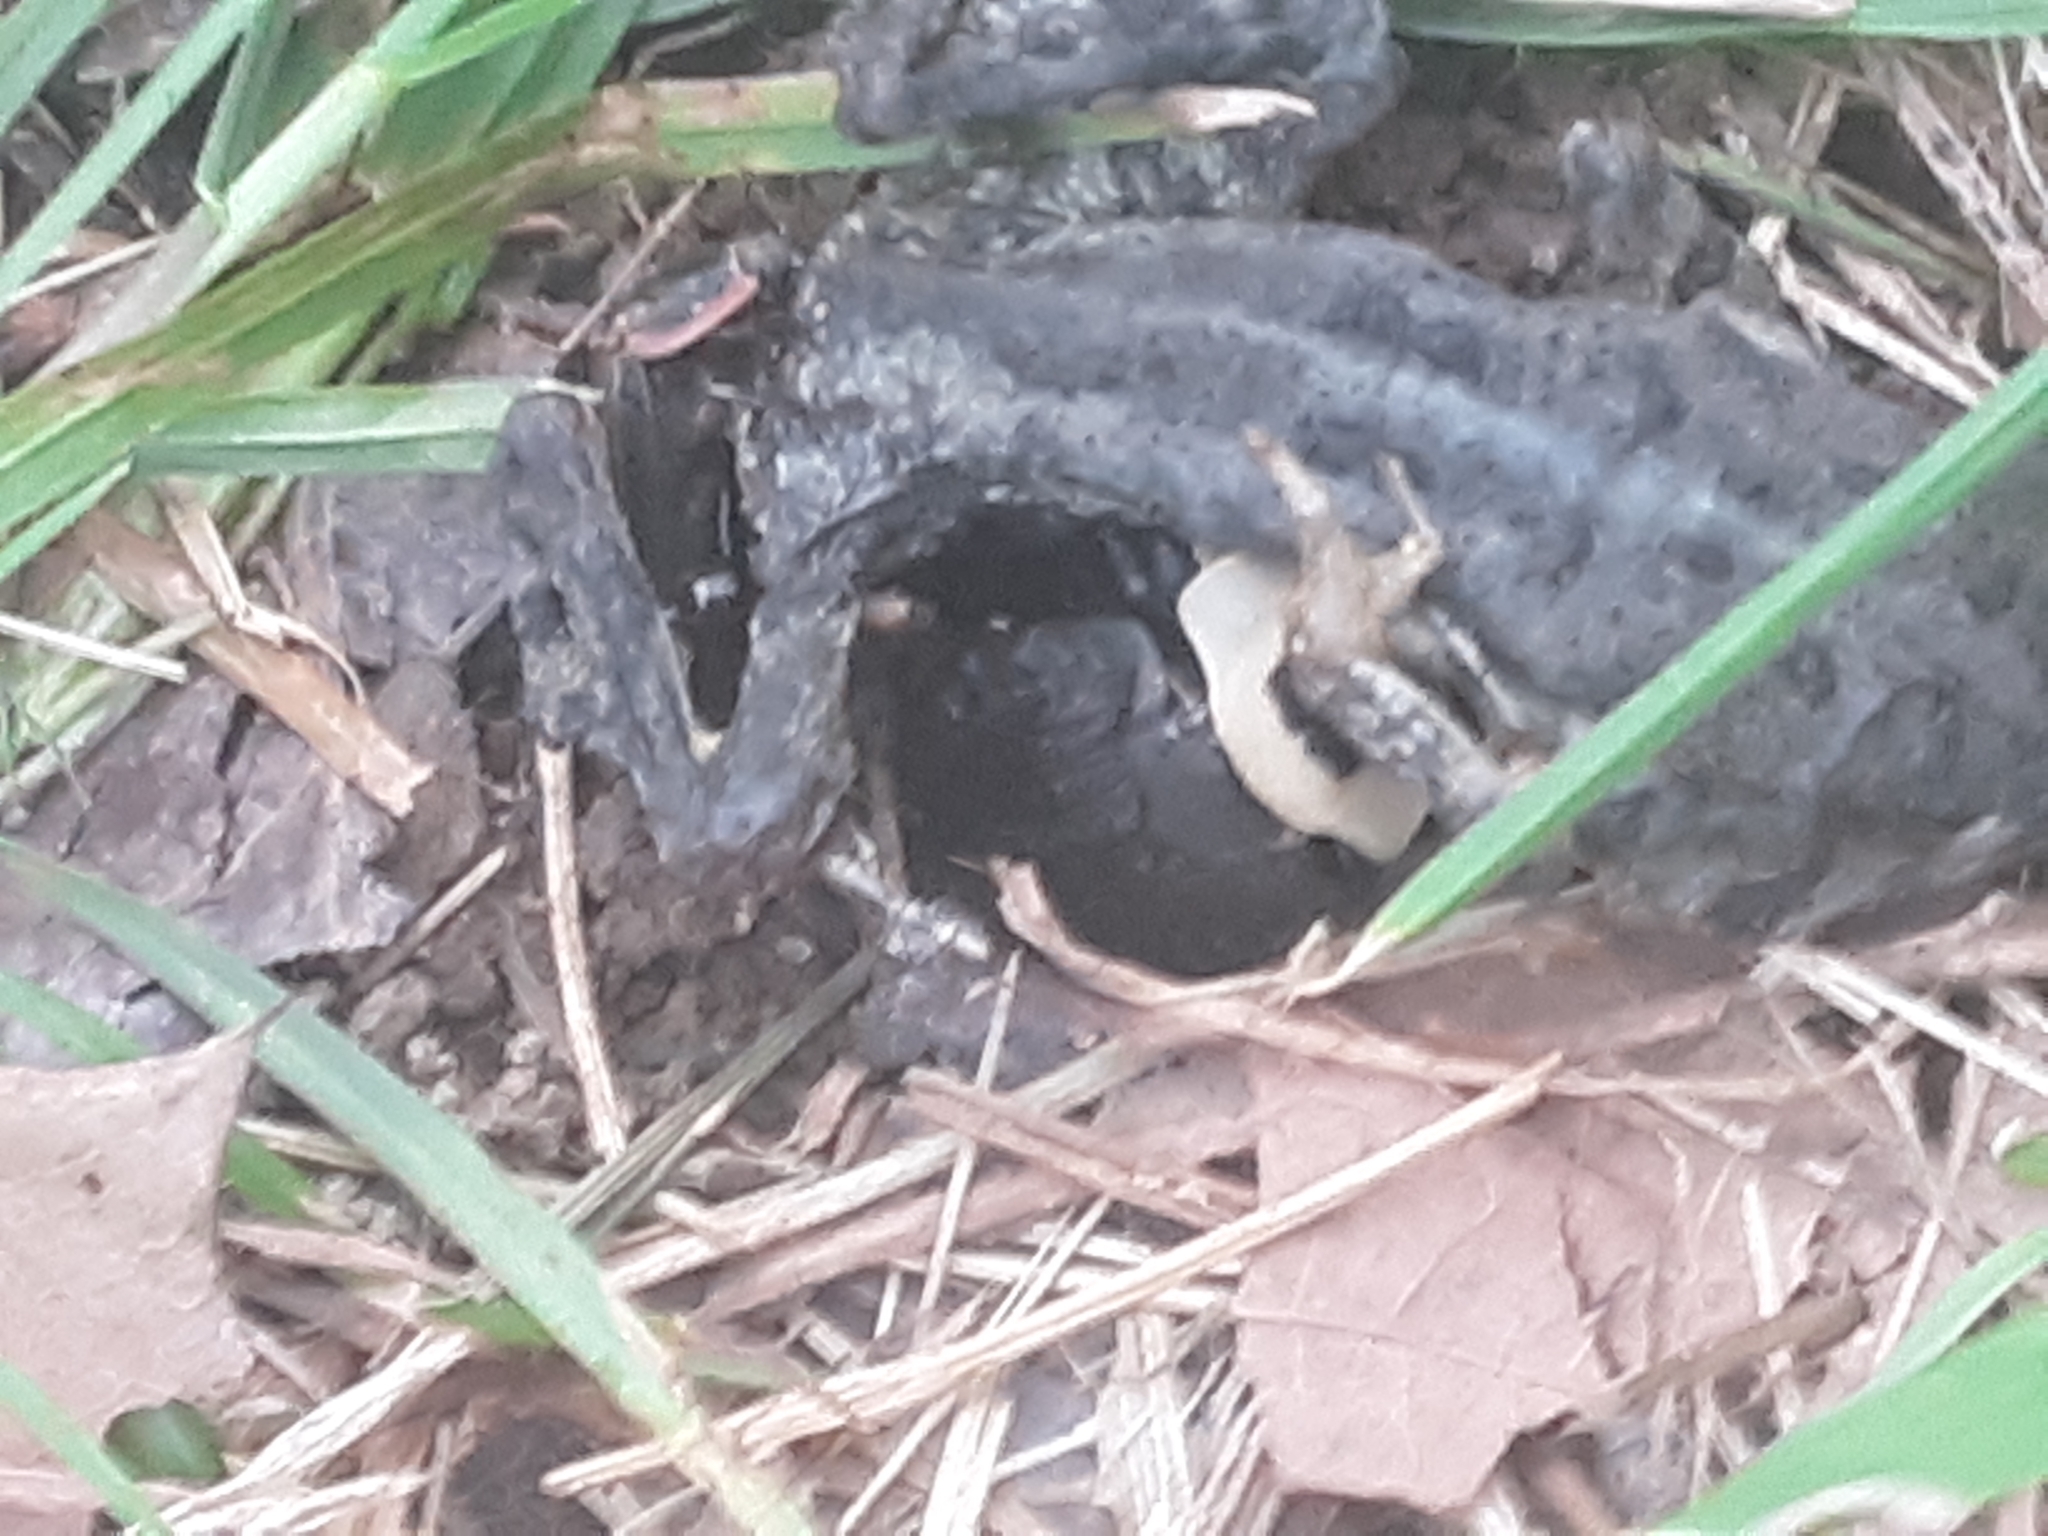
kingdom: Animalia
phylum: Arthropoda
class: Insecta
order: Coleoptera
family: Staphylinidae
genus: Necrophila
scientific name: Necrophila americana
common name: American carrion beetle
